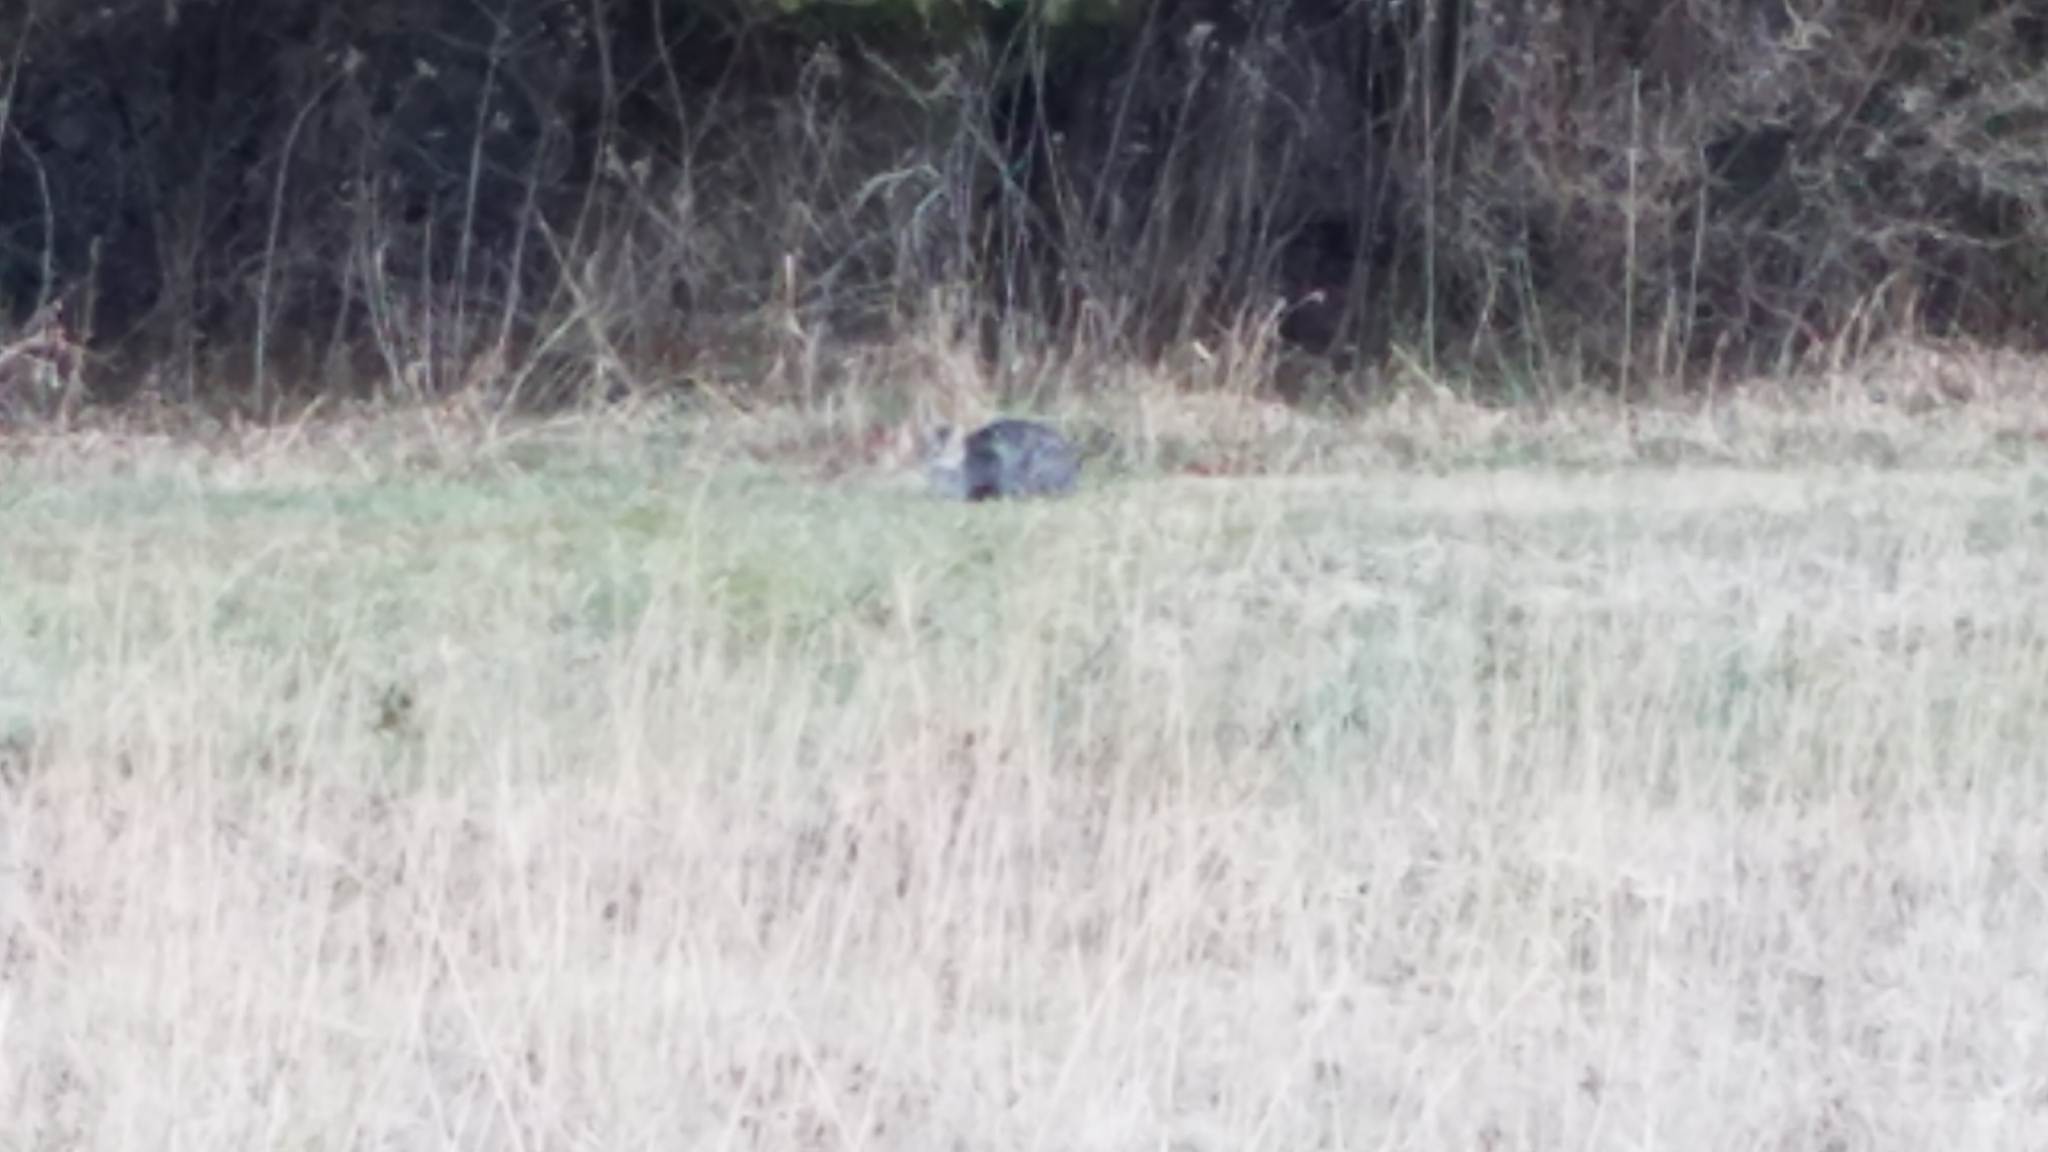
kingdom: Animalia
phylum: Chordata
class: Mammalia
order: Carnivora
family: Felidae
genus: Felis
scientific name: Felis catus
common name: Domestic cat
